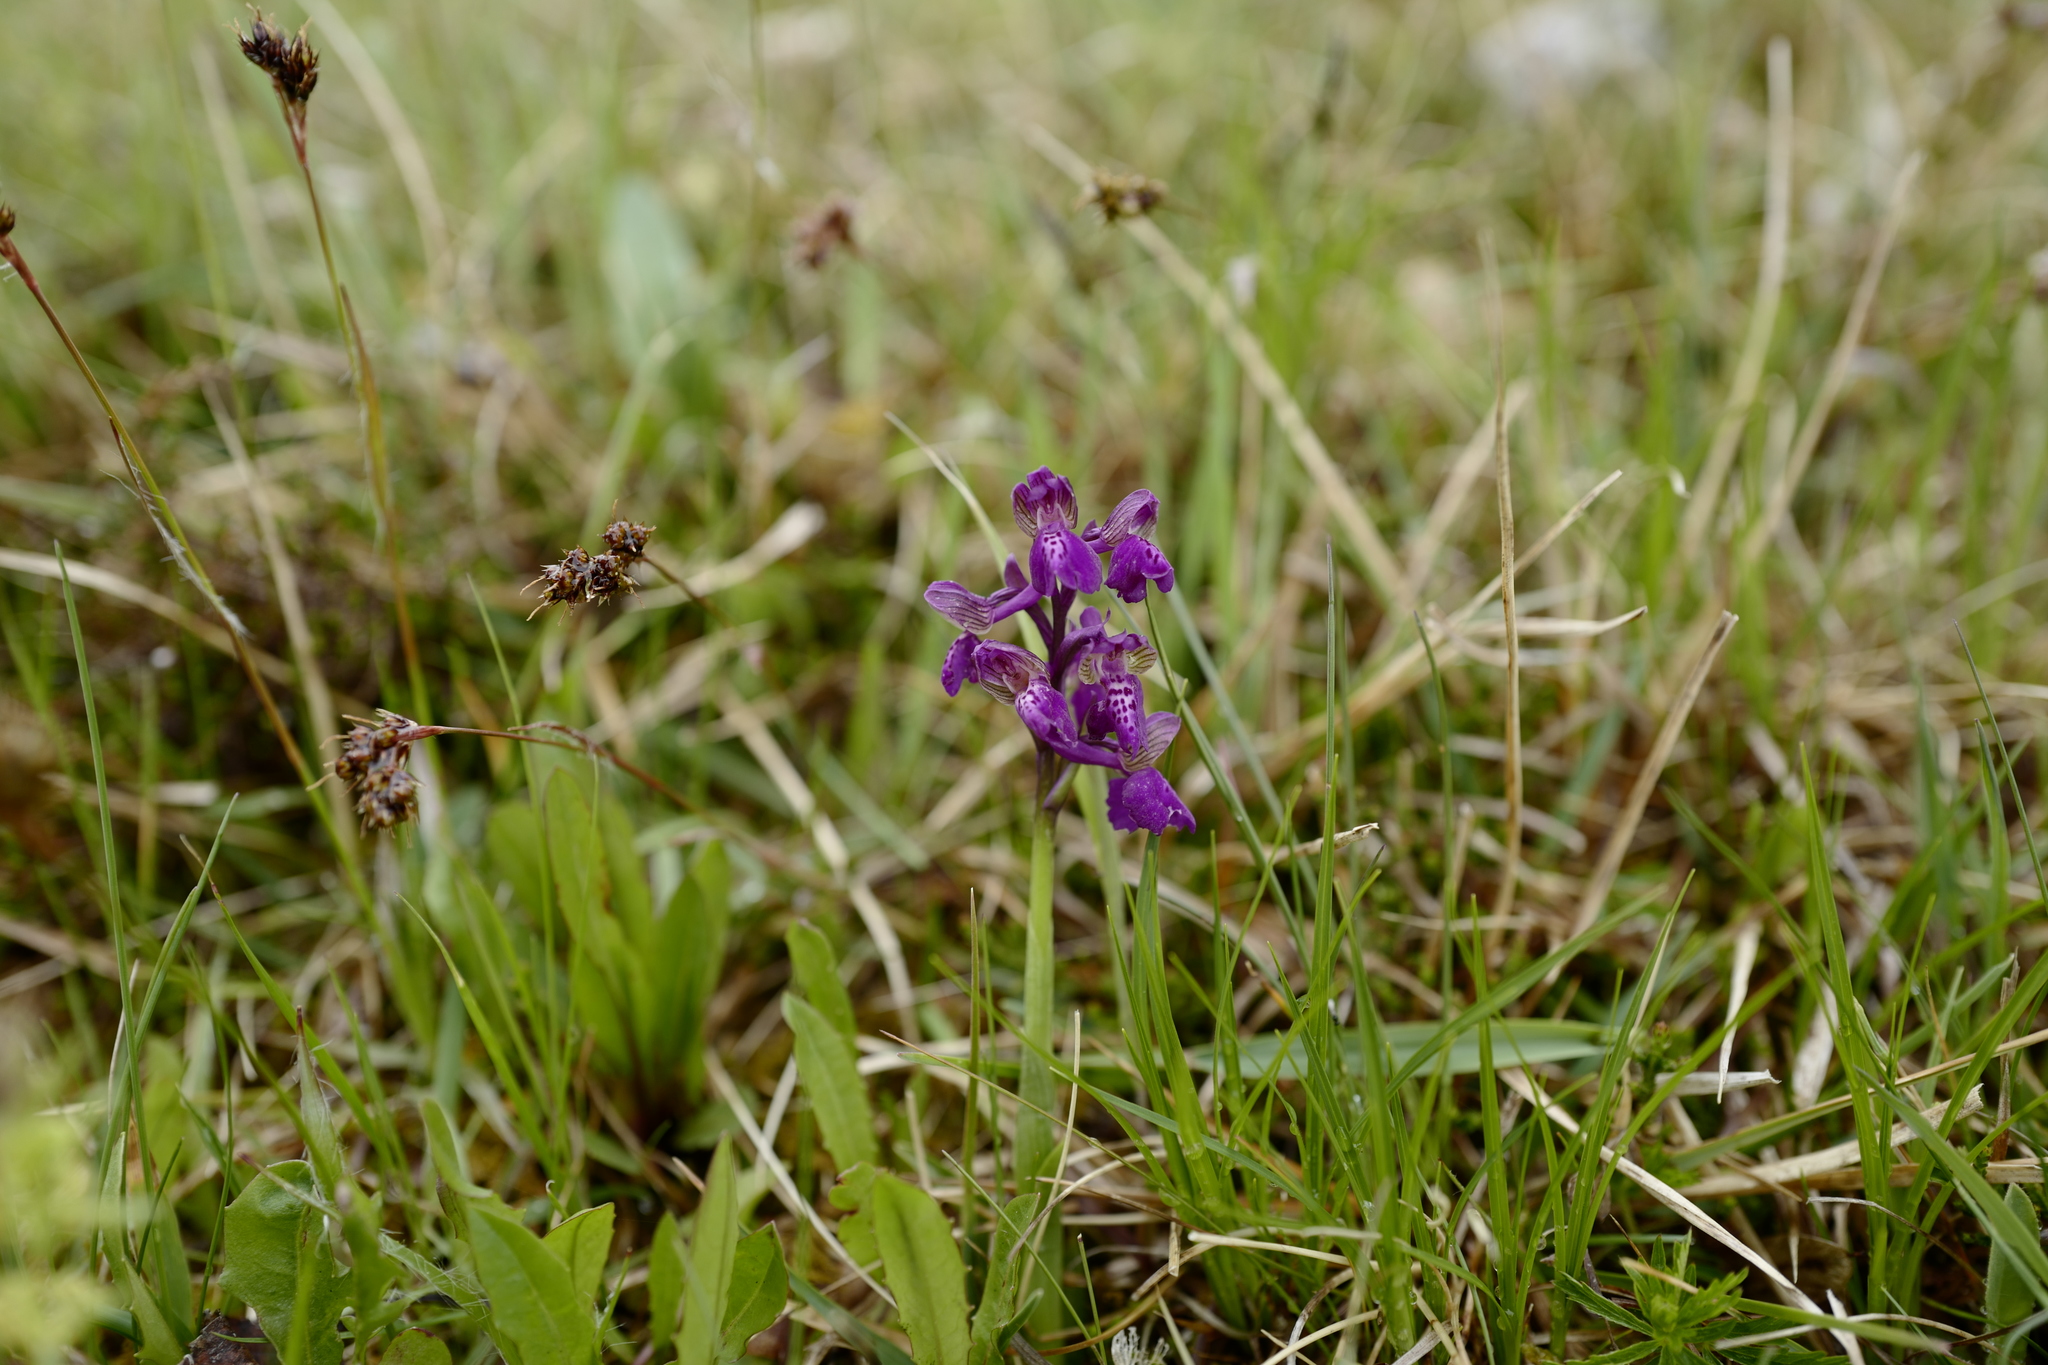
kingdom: Plantae
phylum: Tracheophyta
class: Liliopsida
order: Asparagales
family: Orchidaceae
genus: Anacamptis
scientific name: Anacamptis morio
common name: Green-winged orchid
